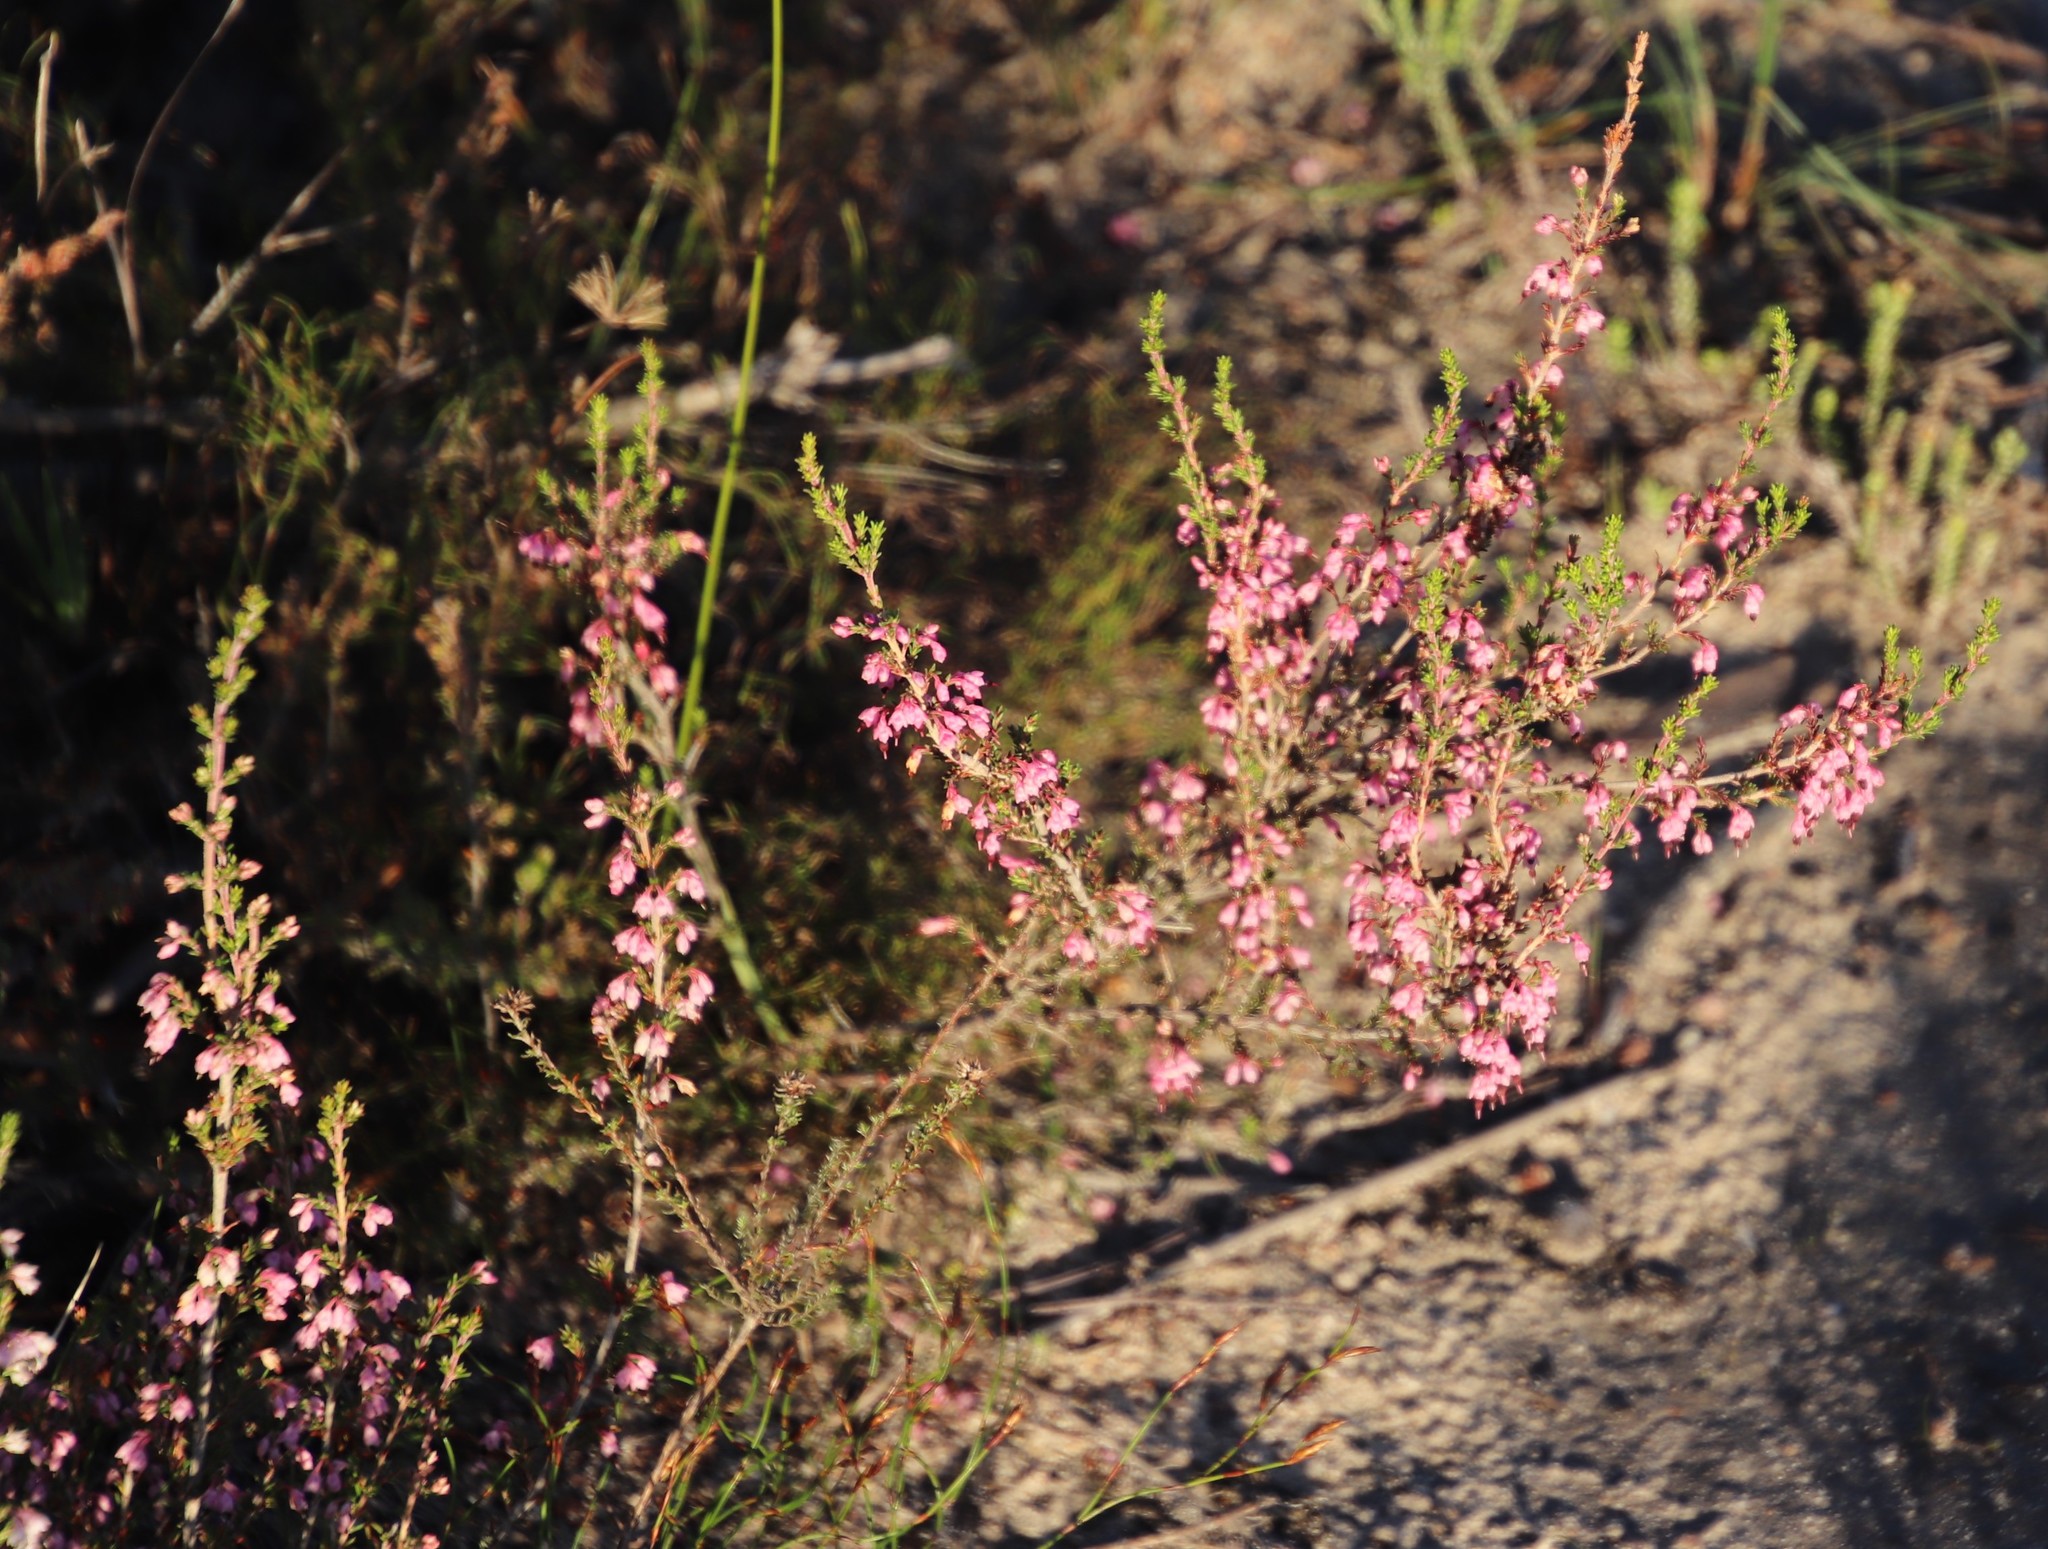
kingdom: Plantae
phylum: Tracheophyta
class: Magnoliopsida
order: Ericales
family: Ericaceae
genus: Erica
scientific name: Erica placentiflora
